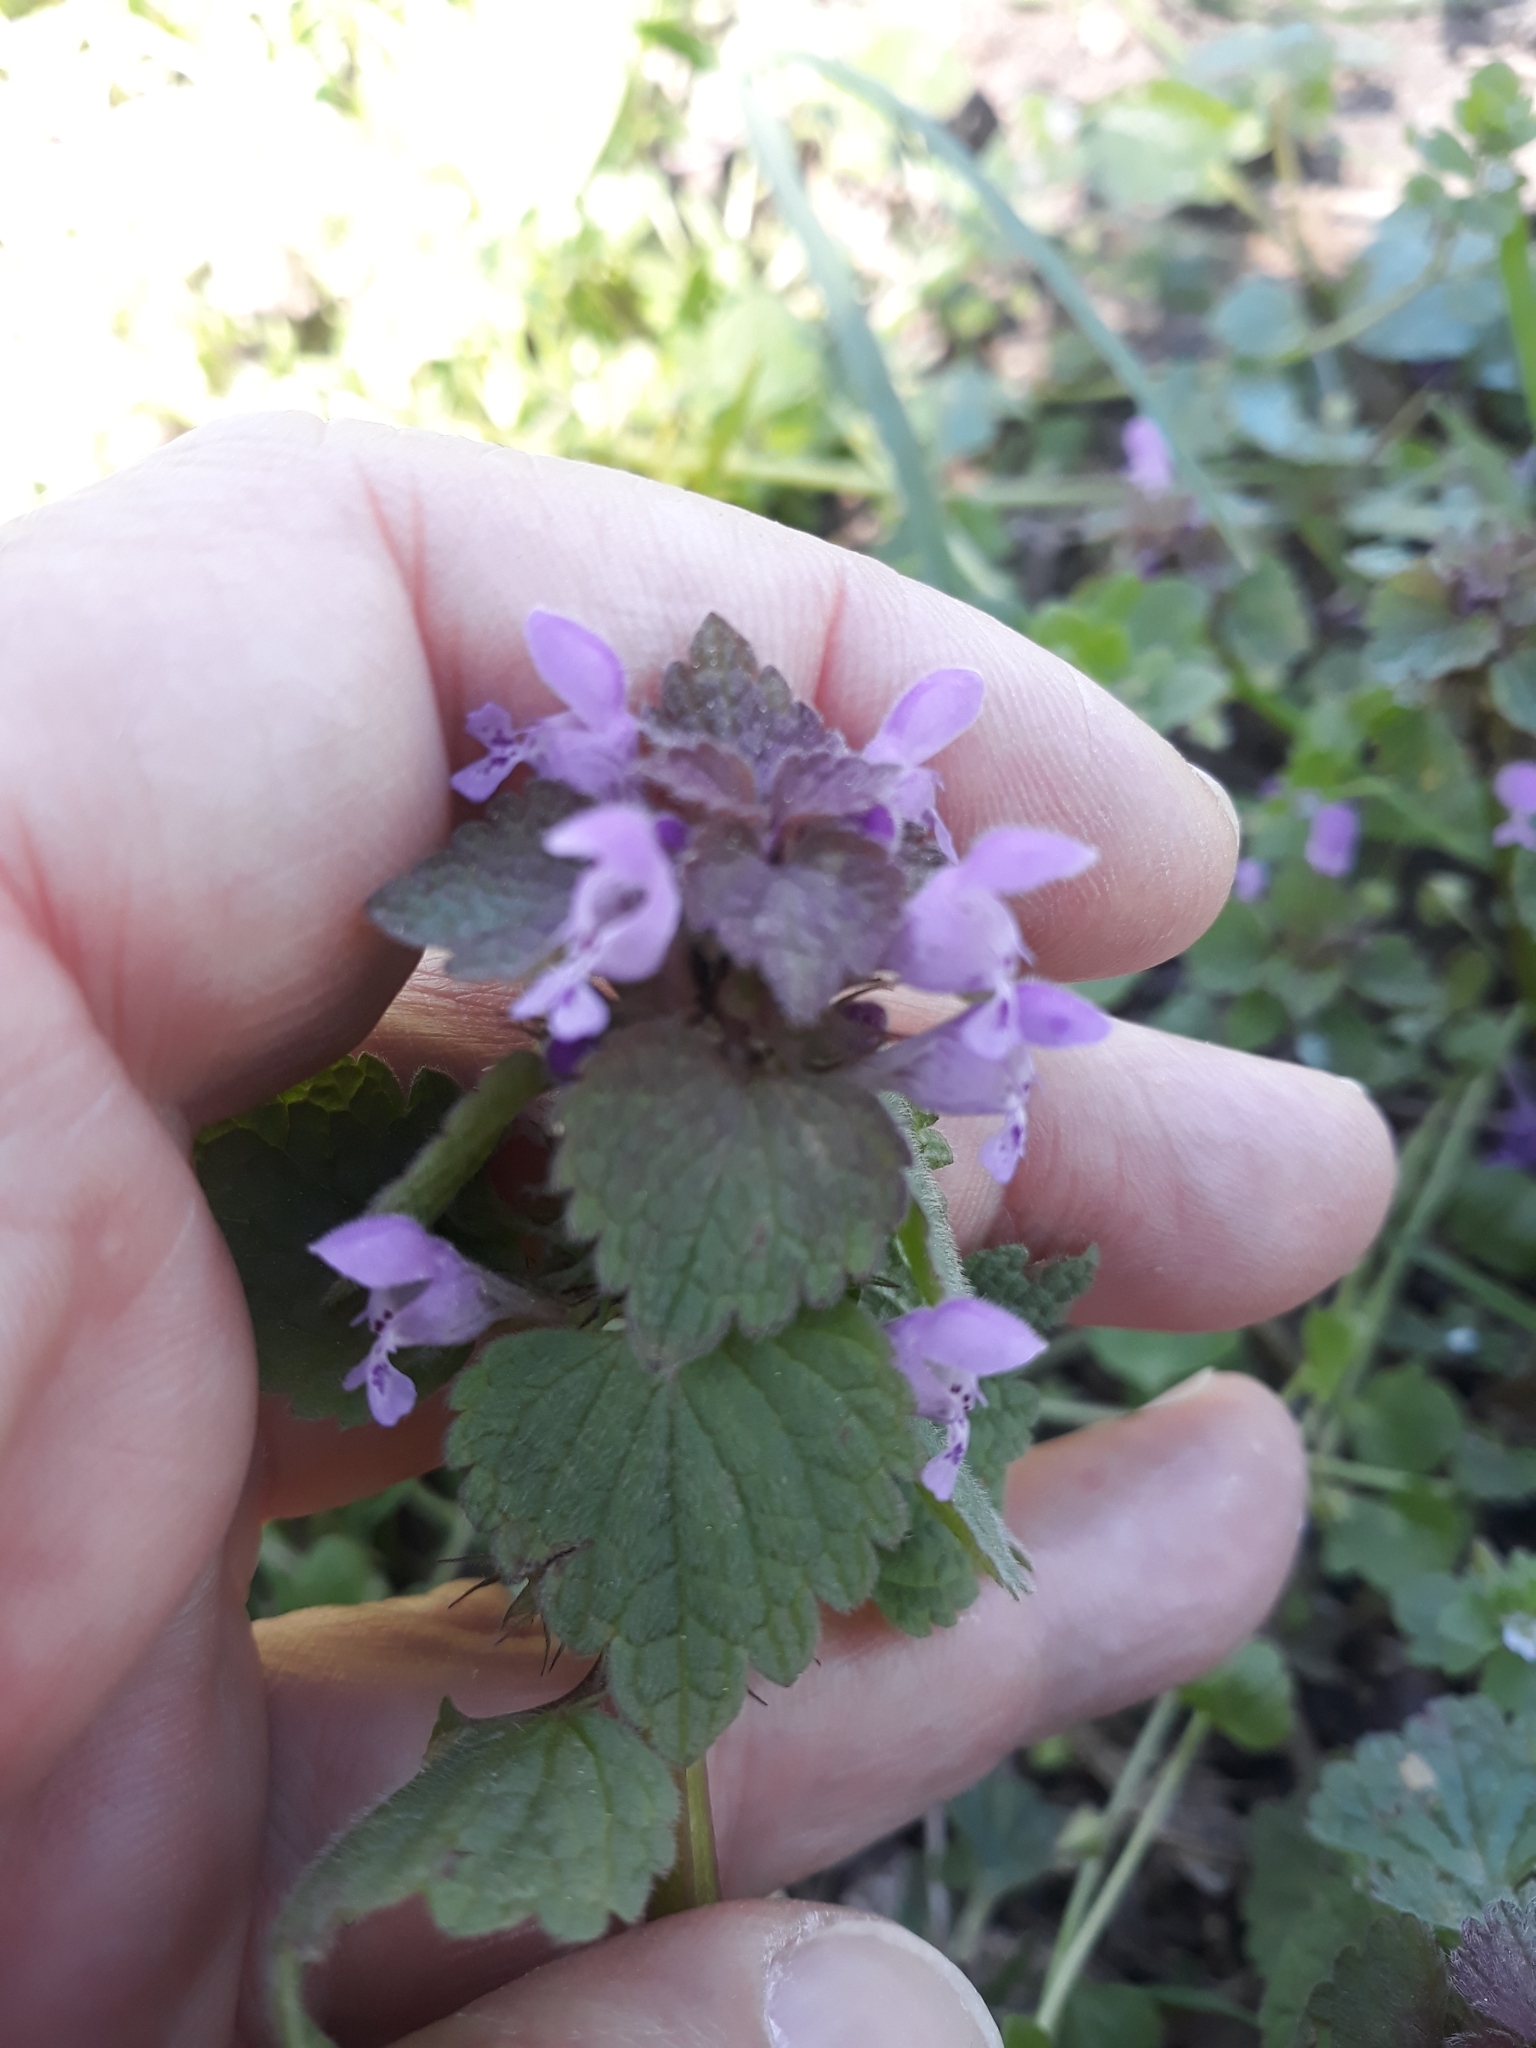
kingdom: Plantae
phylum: Tracheophyta
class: Magnoliopsida
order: Lamiales
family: Lamiaceae
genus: Lamium
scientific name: Lamium purpureum
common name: Red dead-nettle
